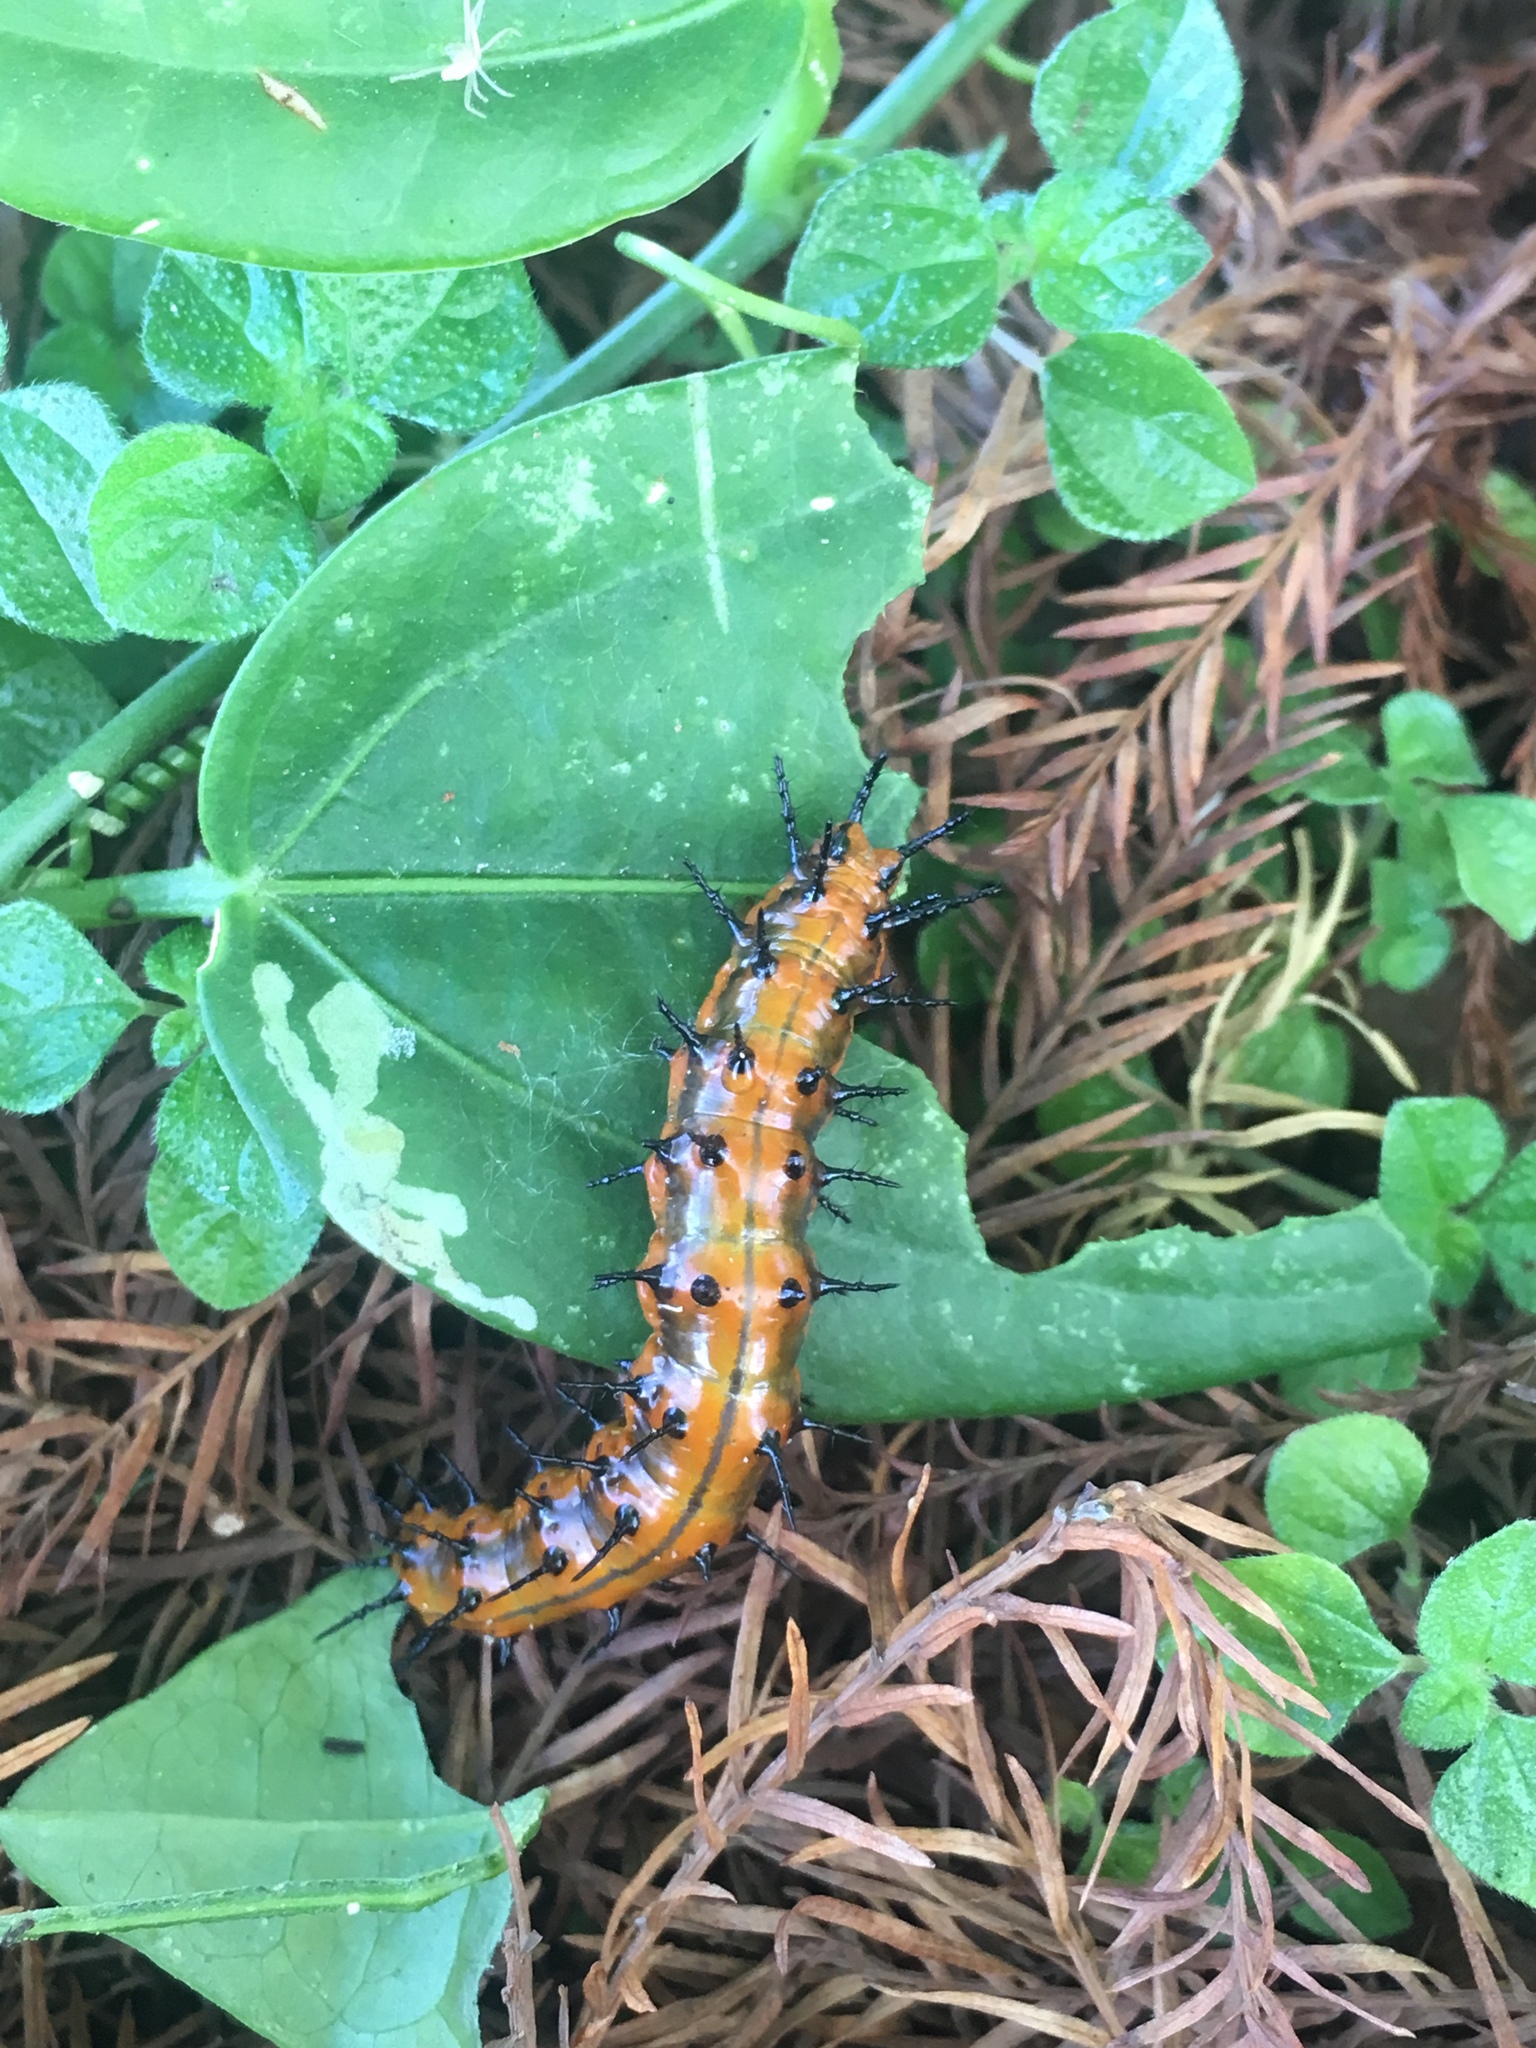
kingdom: Animalia
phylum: Arthropoda
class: Insecta
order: Lepidoptera
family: Nymphalidae
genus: Dione
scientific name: Dione vanillae
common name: Gulf fritillary
